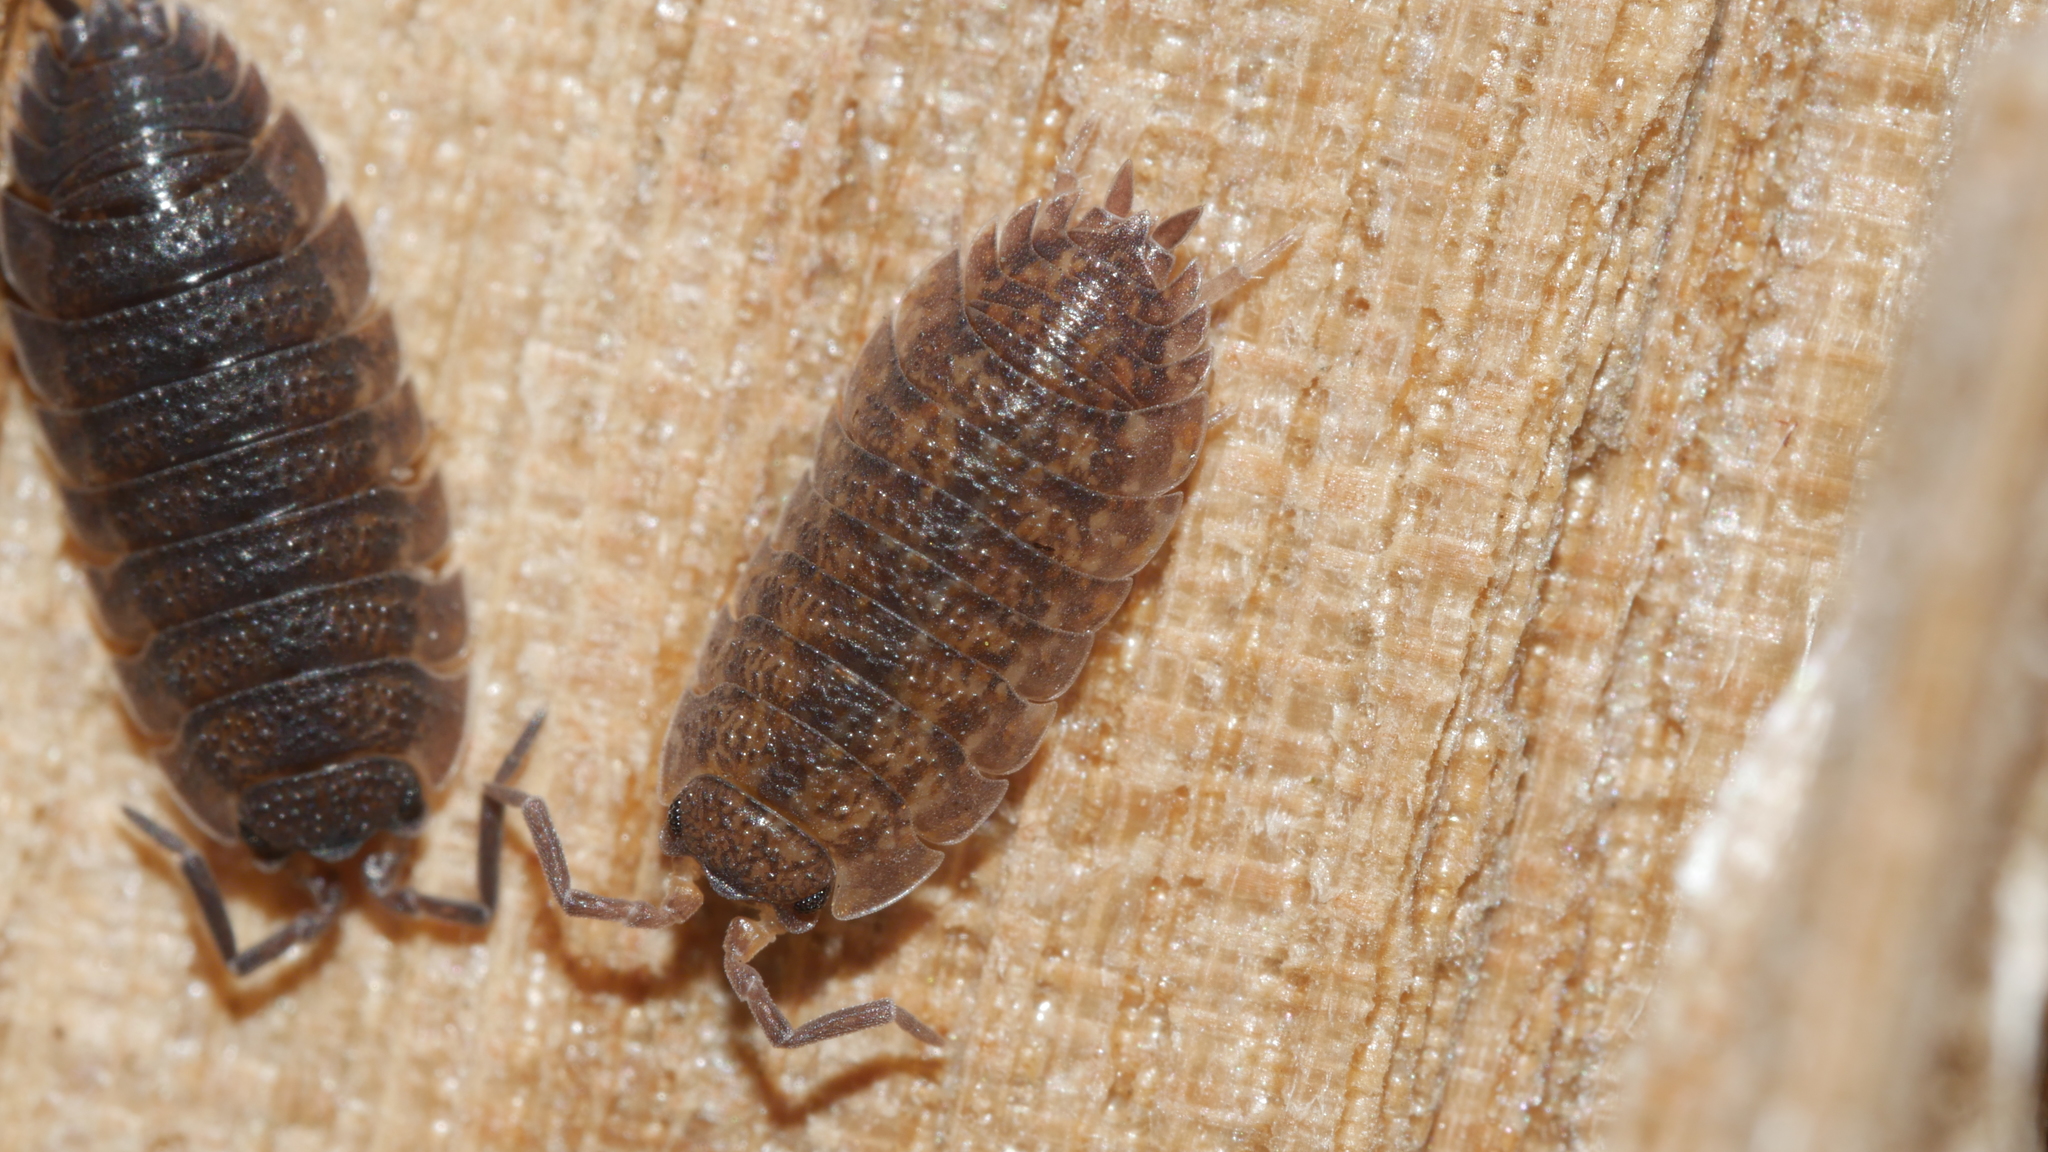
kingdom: Animalia
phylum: Arthropoda
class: Malacostraca
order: Isopoda
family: Porcellionidae
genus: Porcellio
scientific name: Porcellio scaber
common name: Common rough woodlouse
